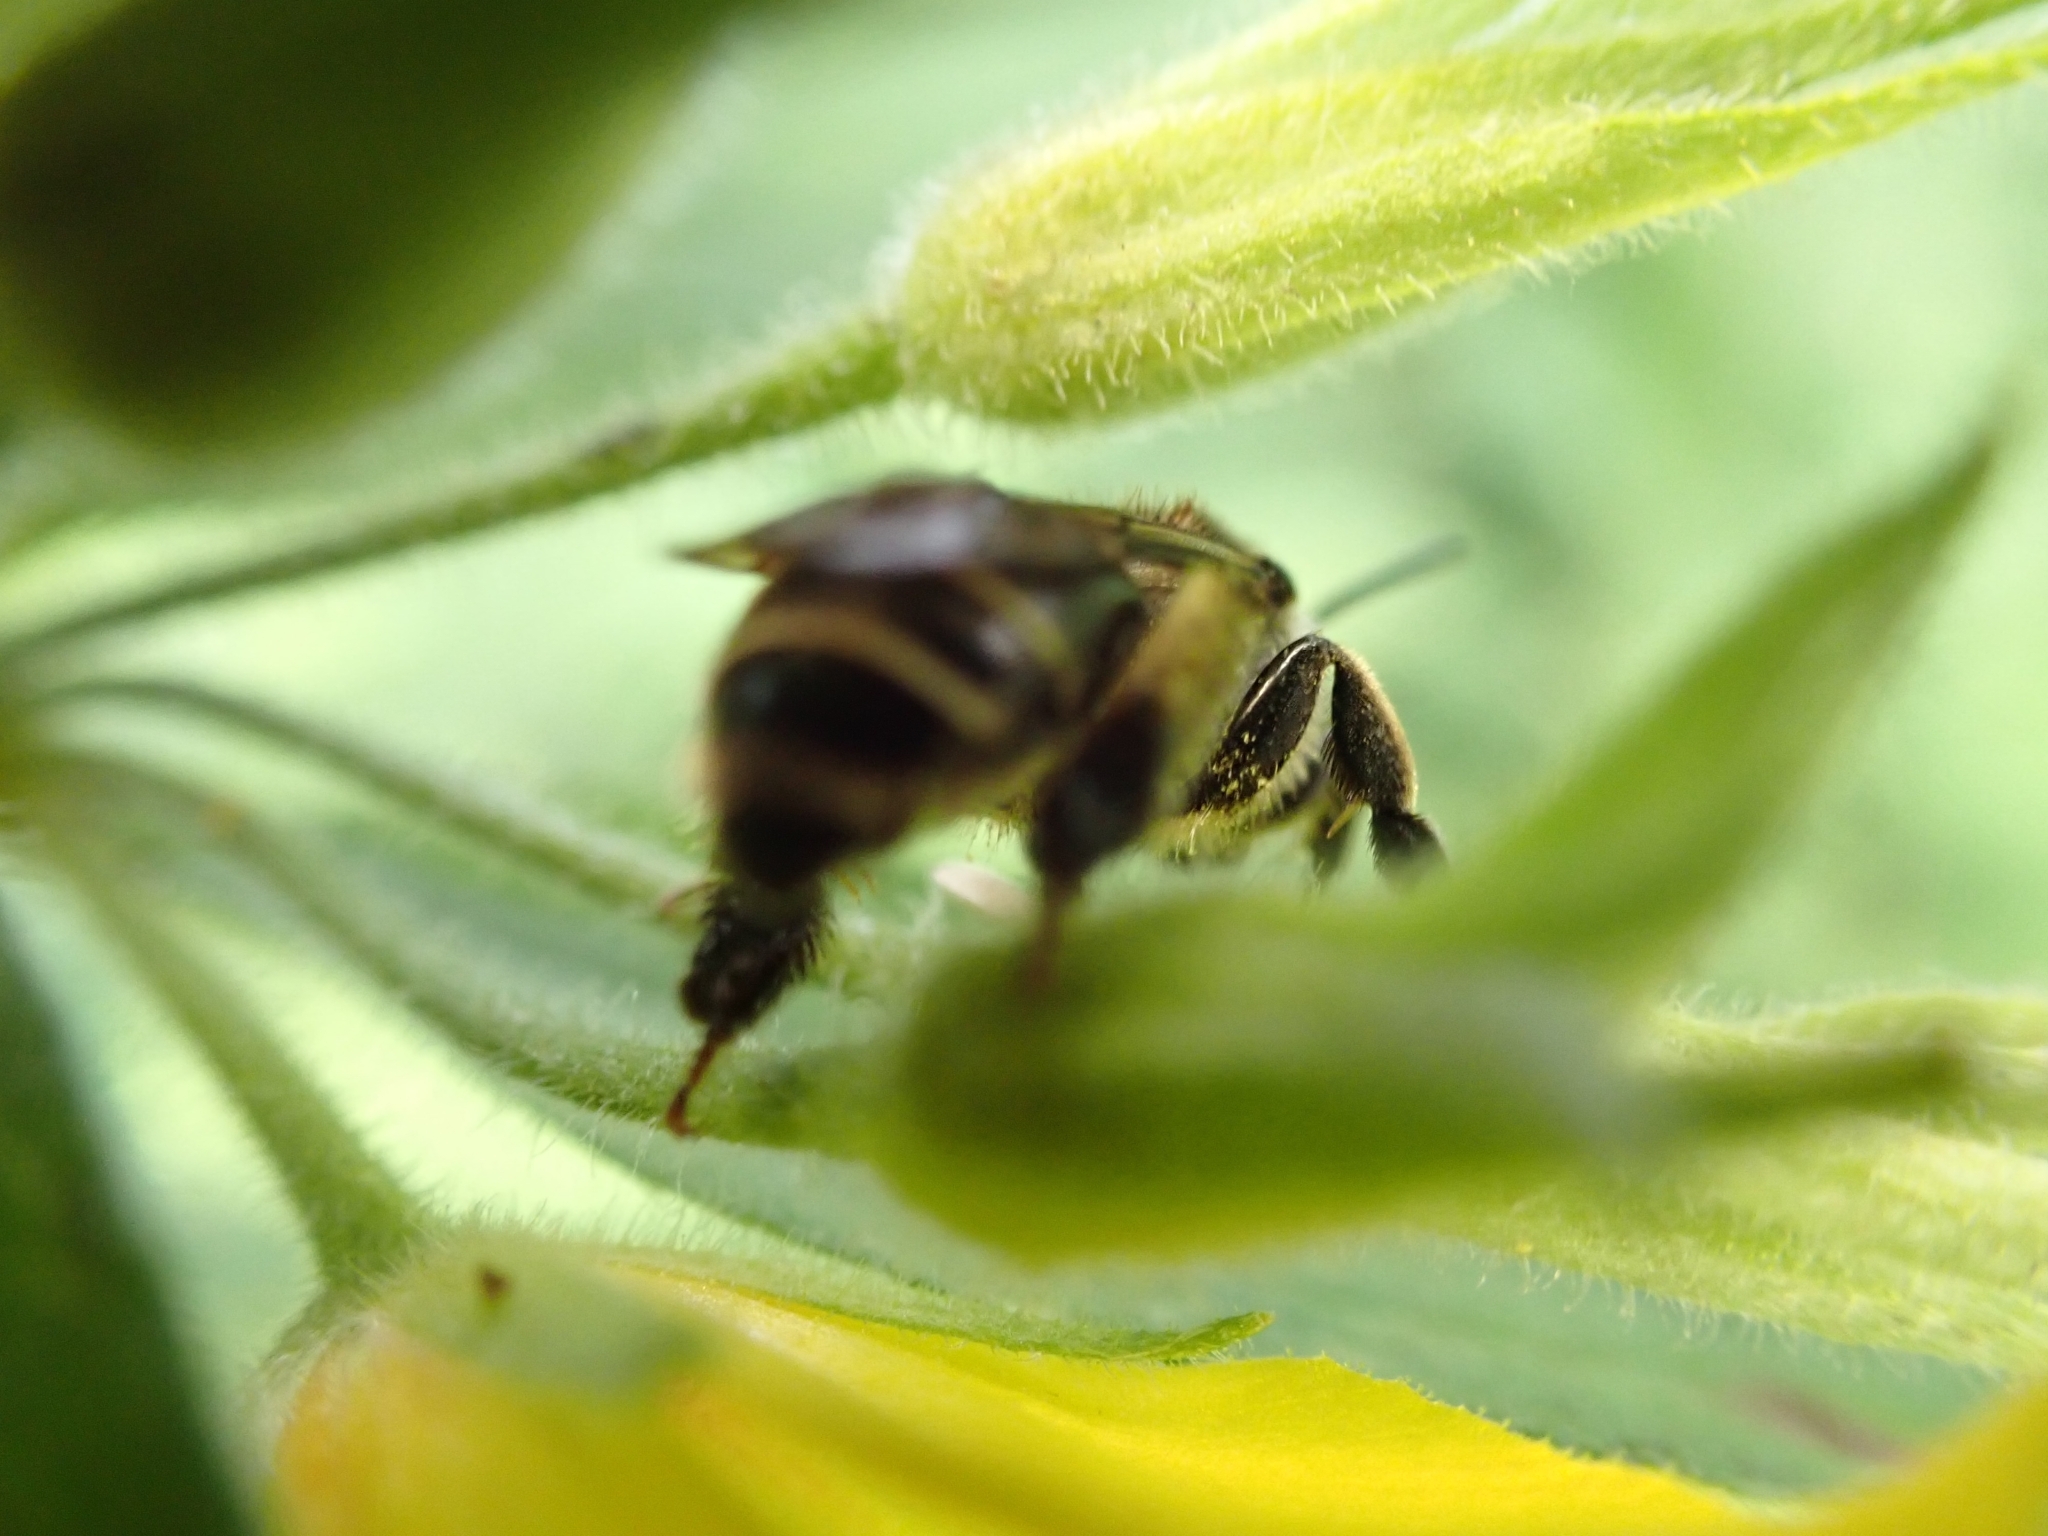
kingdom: Animalia
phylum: Arthropoda
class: Insecta
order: Hymenoptera
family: Melittidae
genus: Macropis
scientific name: Macropis europaea
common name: Yellow loosestrife bee
